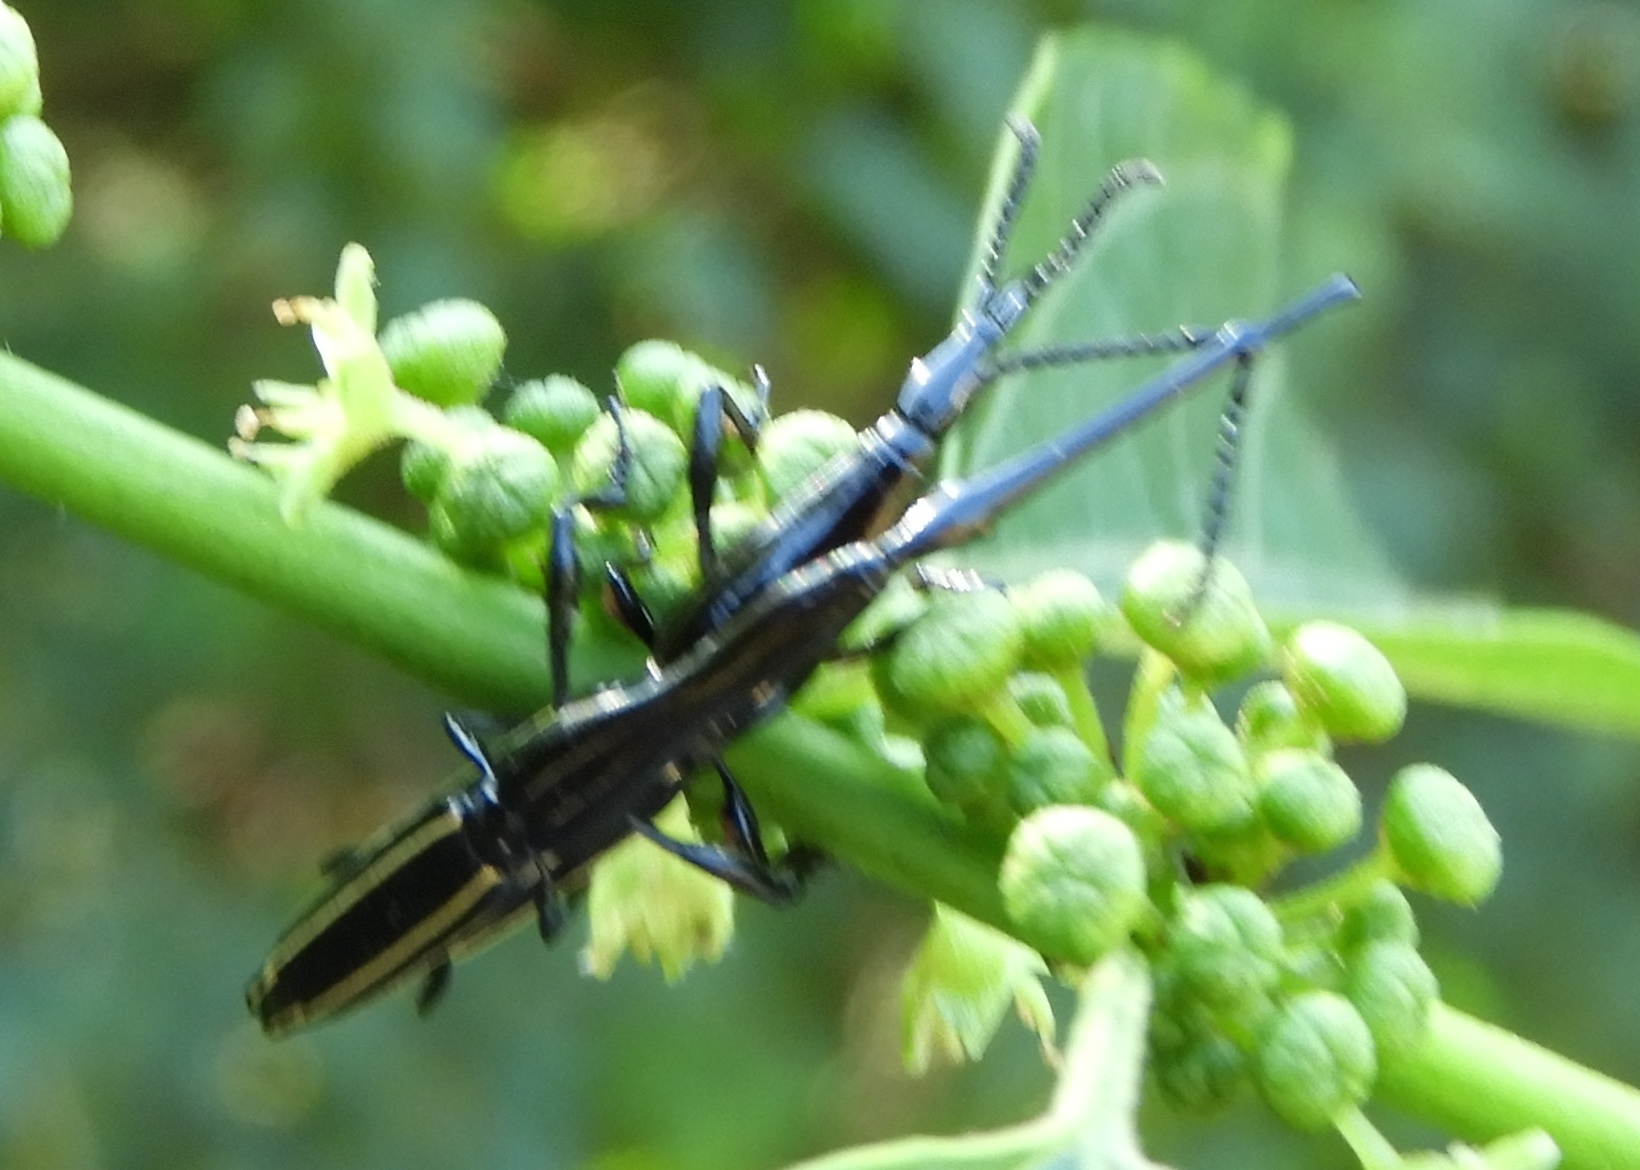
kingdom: Animalia
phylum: Arthropoda
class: Insecta
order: Coleoptera
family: Brentidae
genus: Brentus
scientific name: Brentus anchorago
